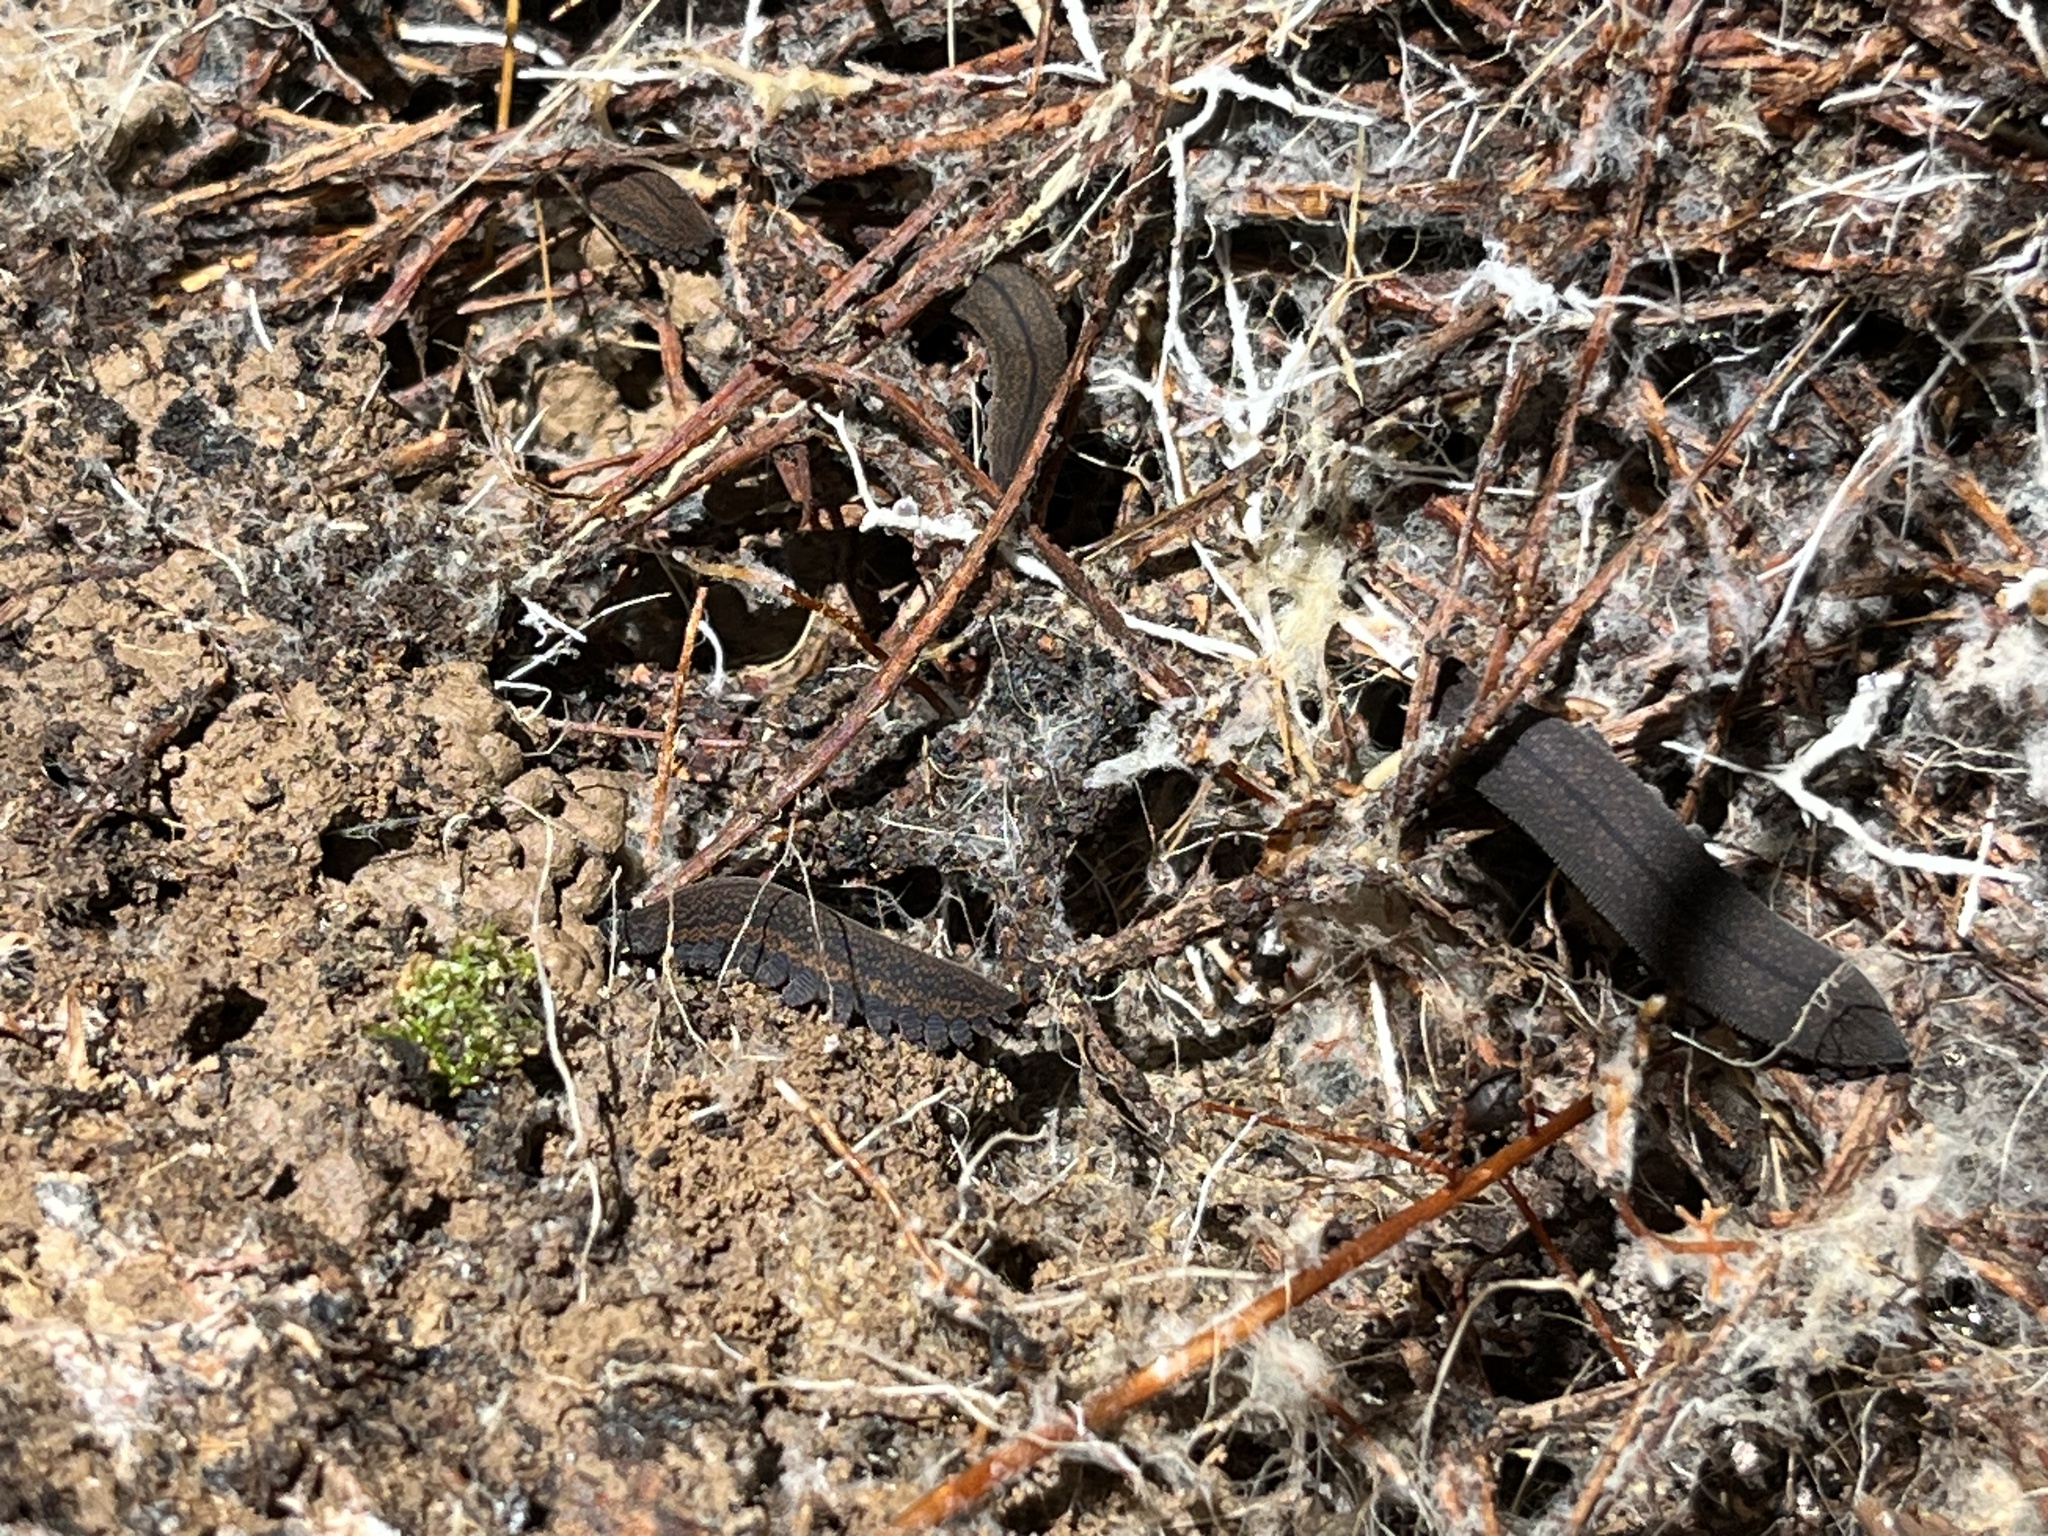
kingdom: Animalia
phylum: Onychophora
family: Peripatopsidae
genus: Peripatoides
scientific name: Peripatoides novaezealandiae
